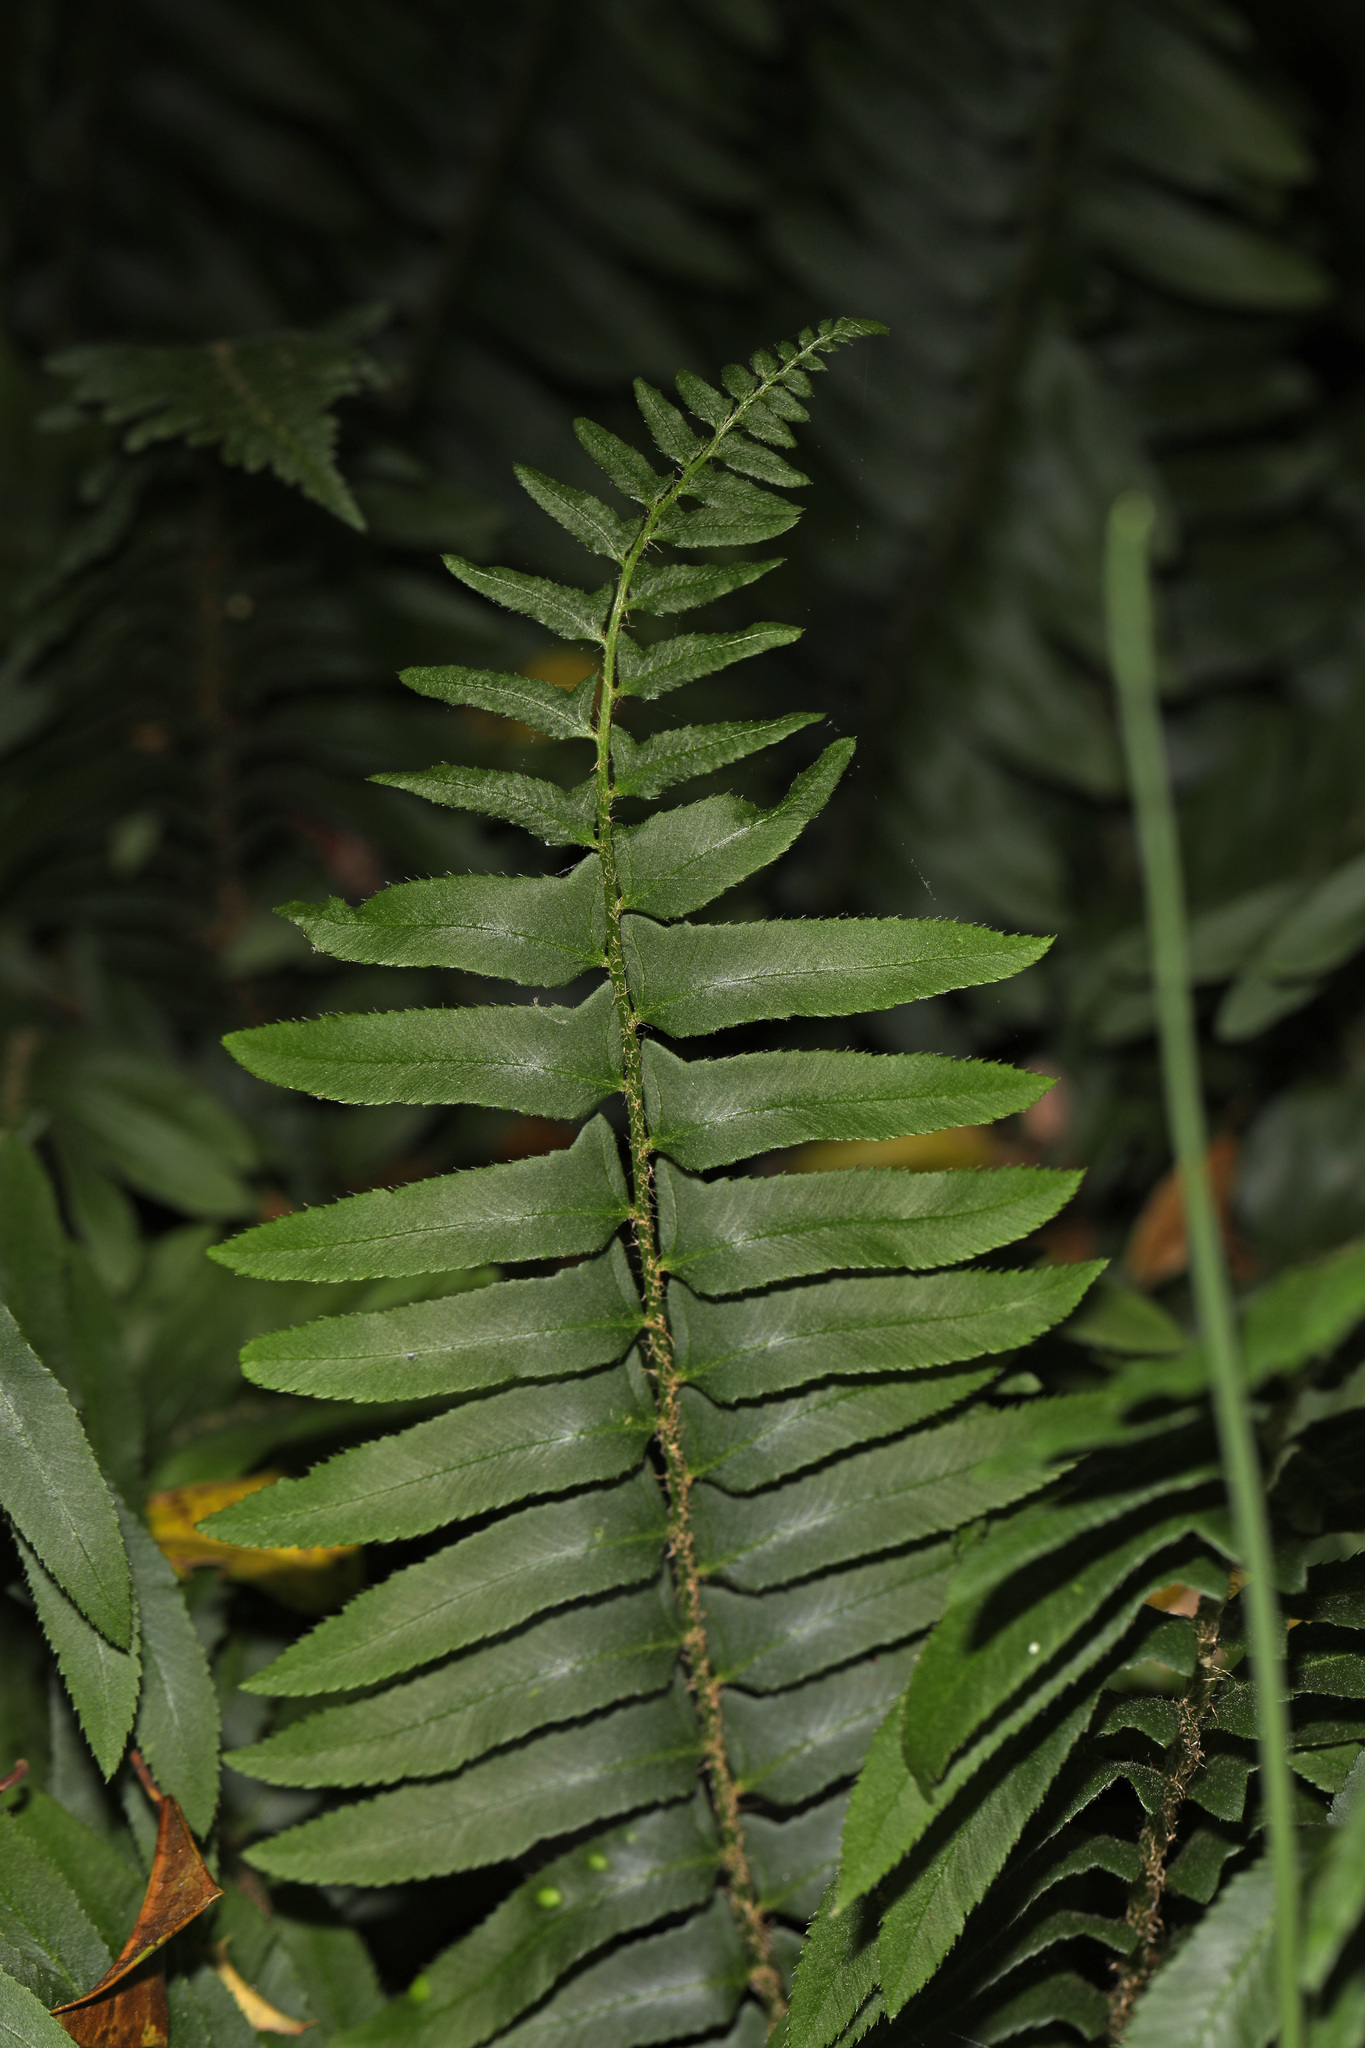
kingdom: Plantae
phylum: Tracheophyta
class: Polypodiopsida
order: Polypodiales
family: Dryopteridaceae
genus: Polystichum
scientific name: Polystichum acrostichoides
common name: Christmas fern
